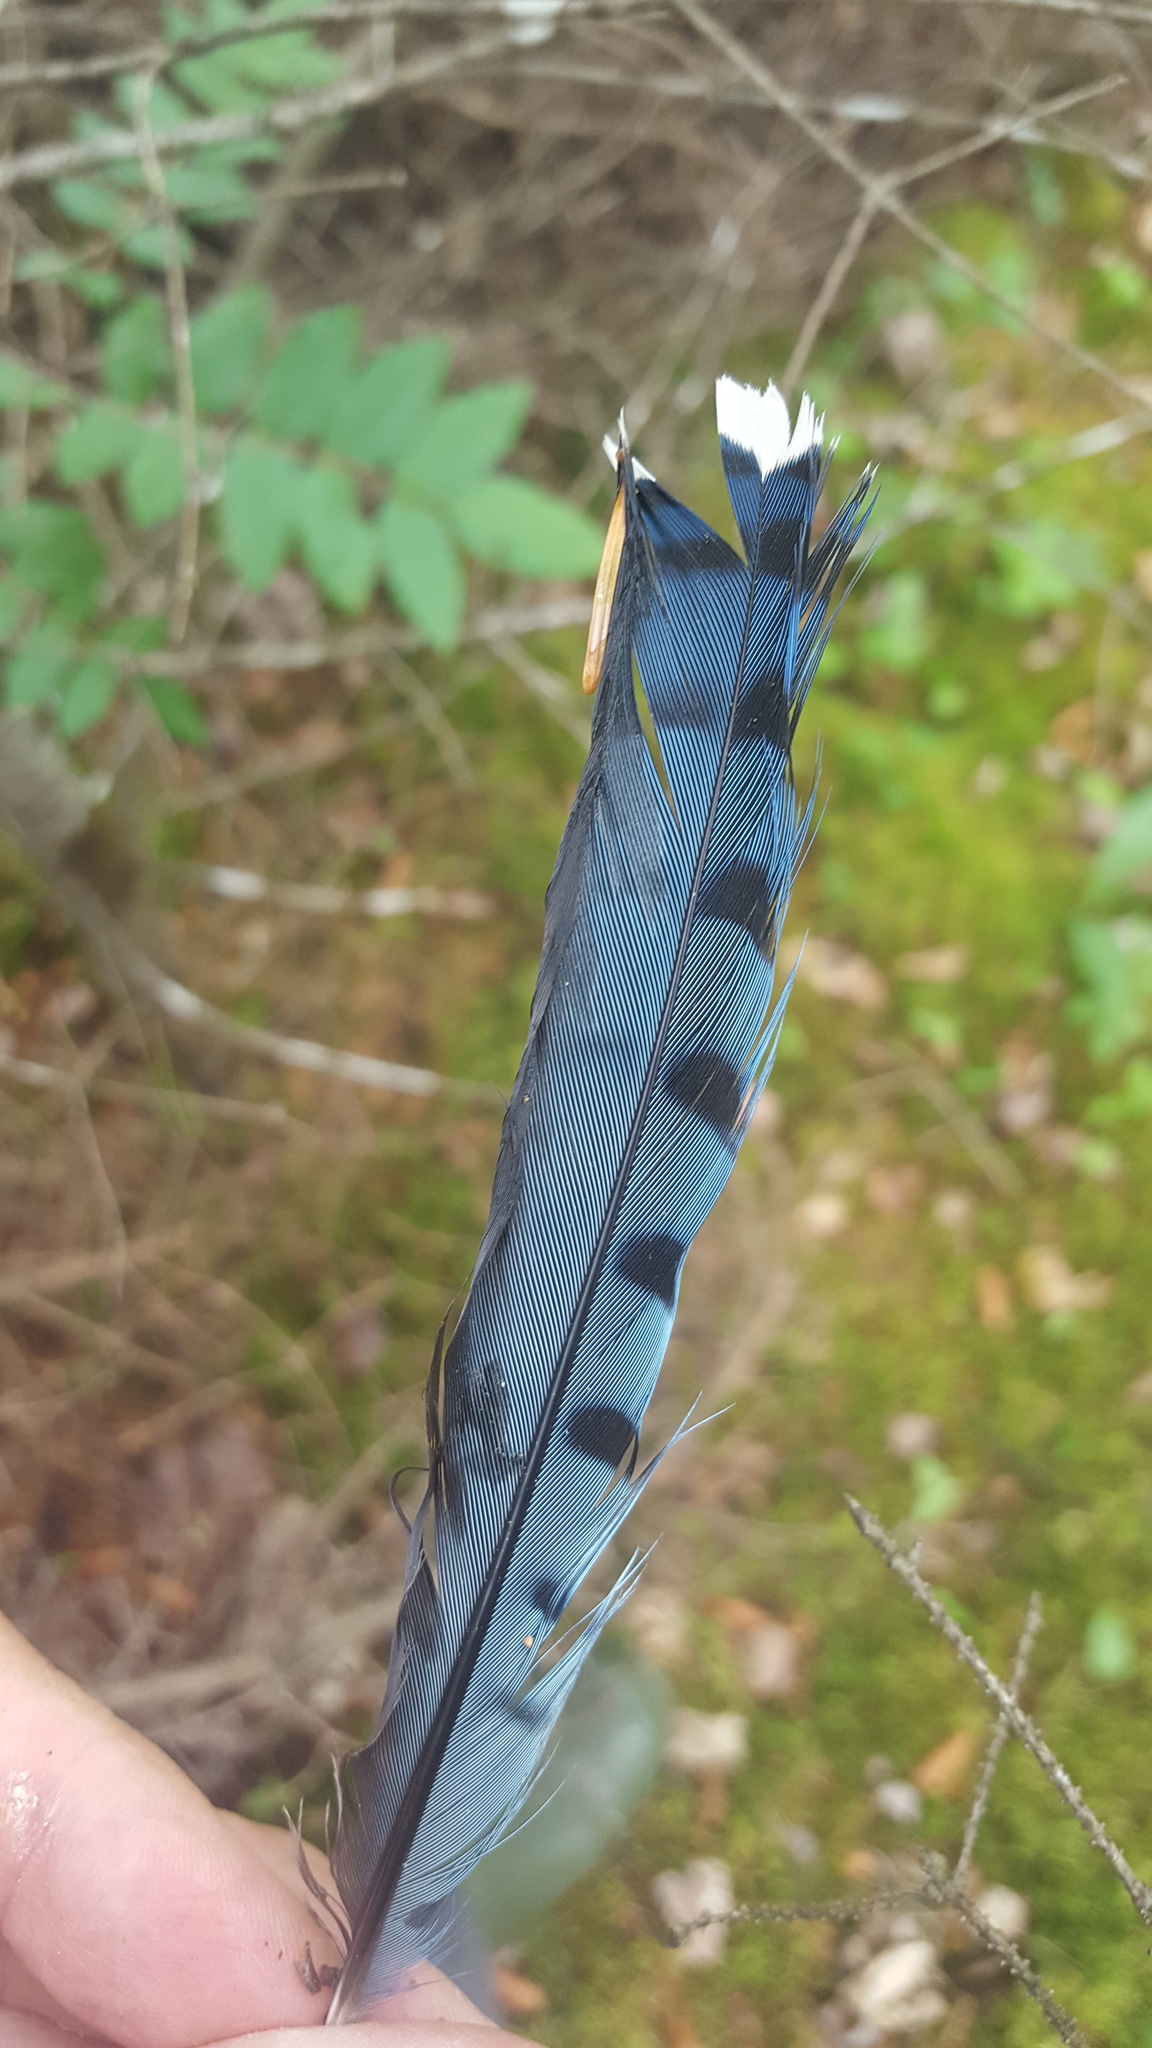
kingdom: Animalia
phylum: Chordata
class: Aves
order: Passeriformes
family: Corvidae
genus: Cyanocitta
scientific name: Cyanocitta cristata
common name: Blue jay
